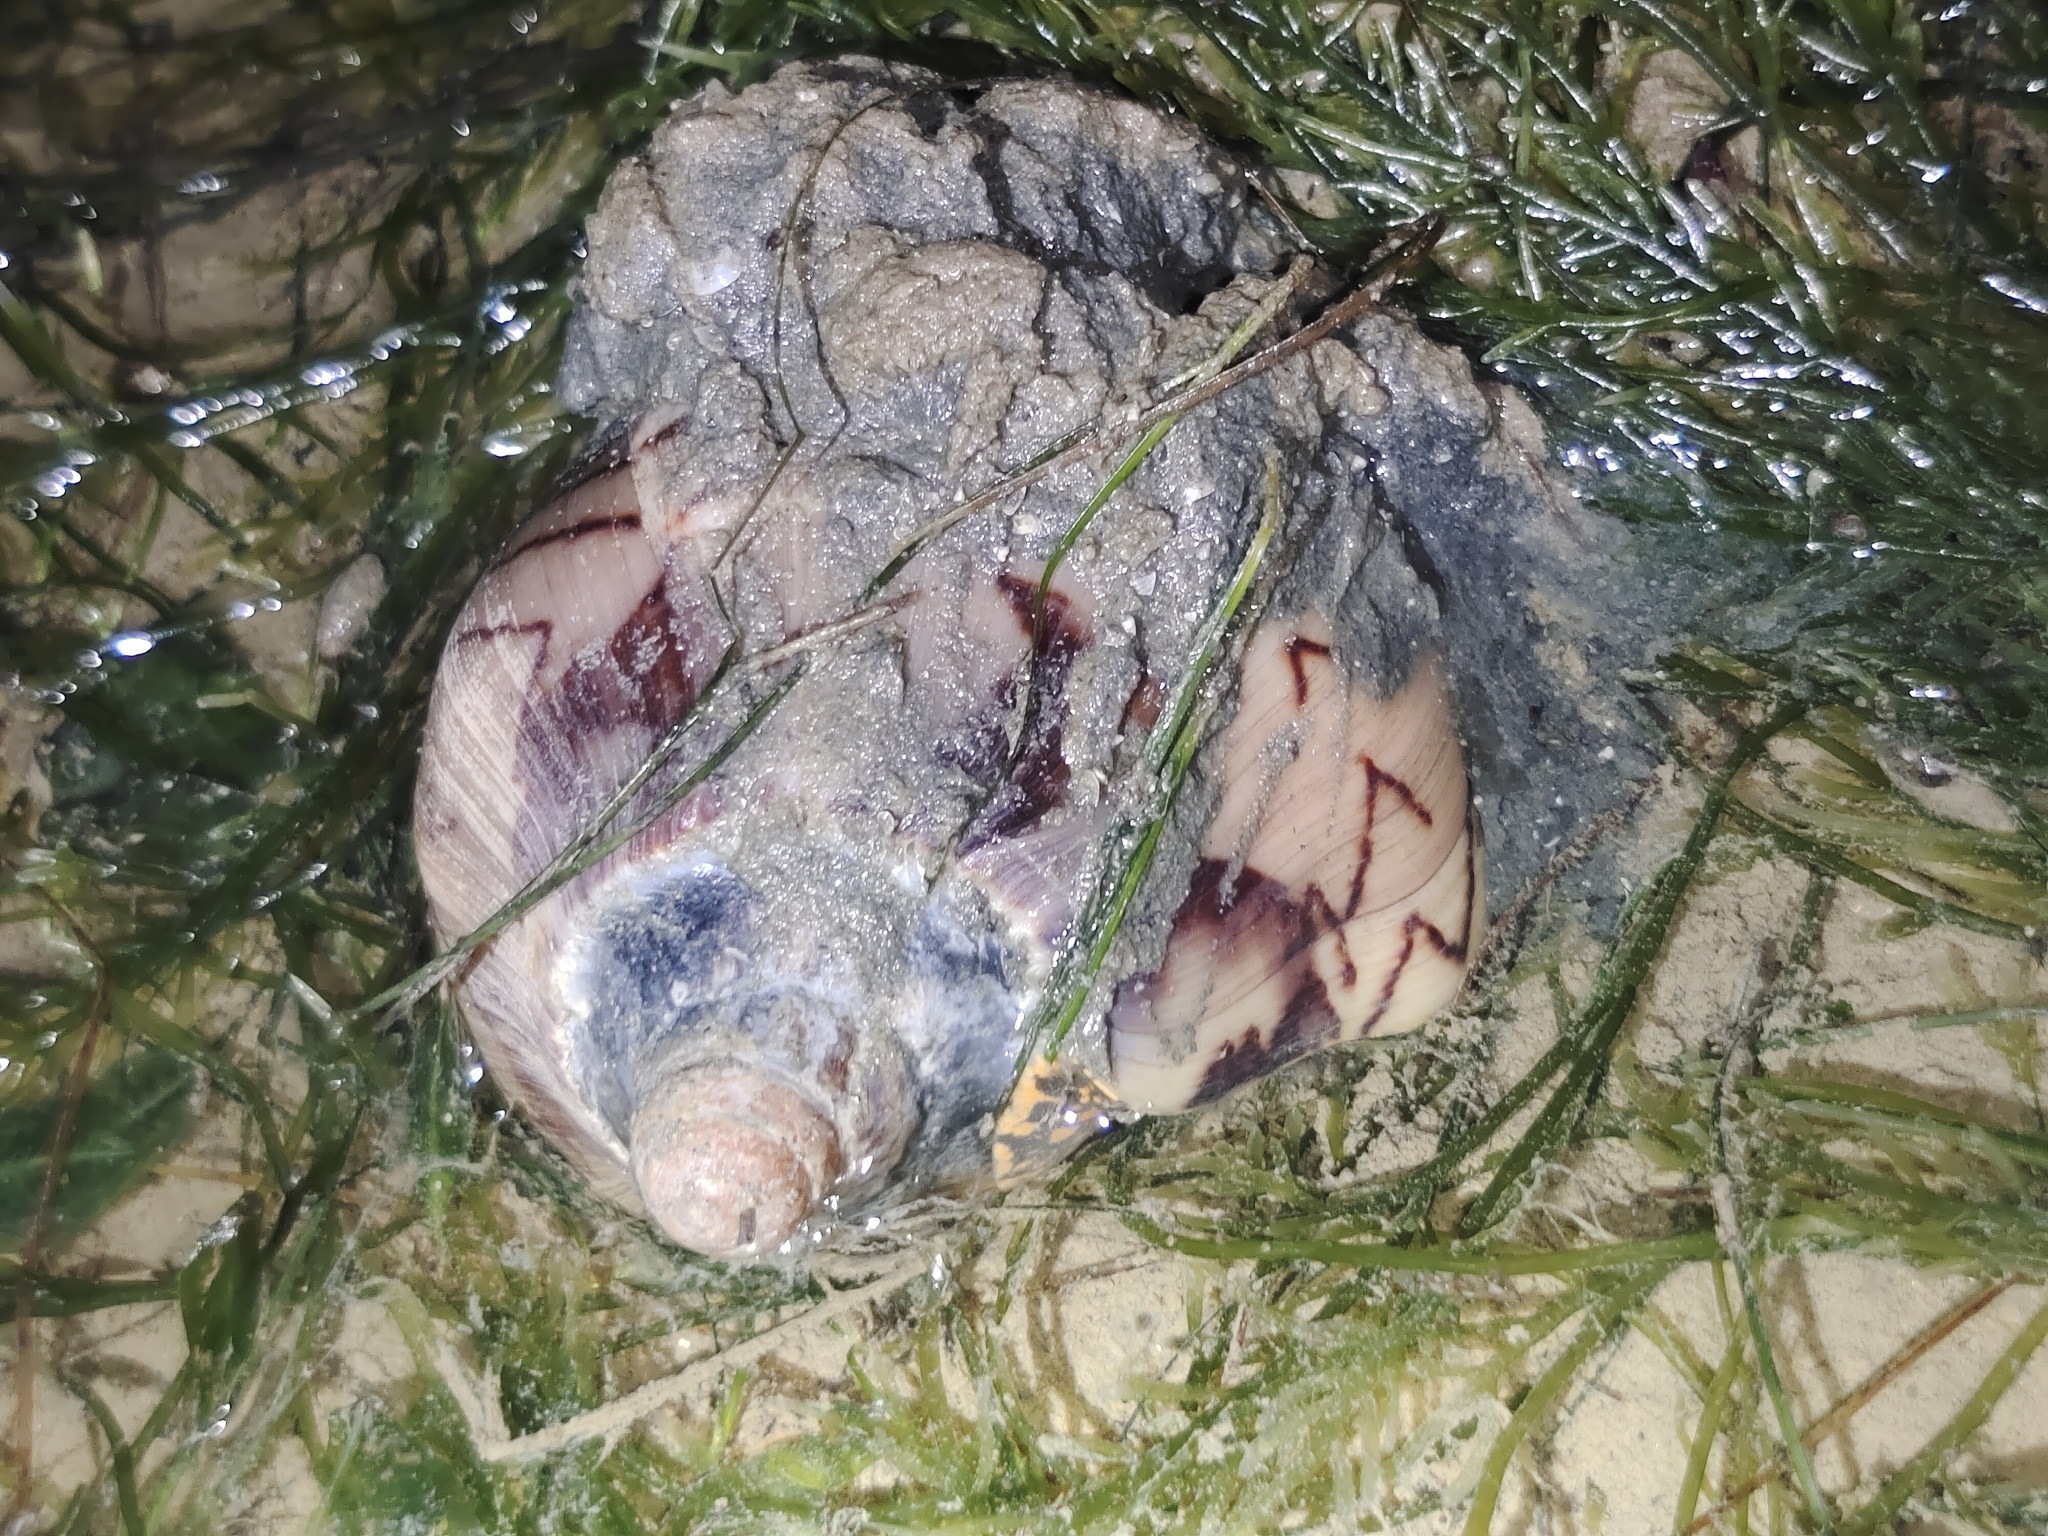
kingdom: Animalia
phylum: Mollusca
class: Gastropoda
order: Neogastropoda
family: Volutidae
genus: Cymbiola
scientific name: Cymbiola nobilis
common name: Noble volute
